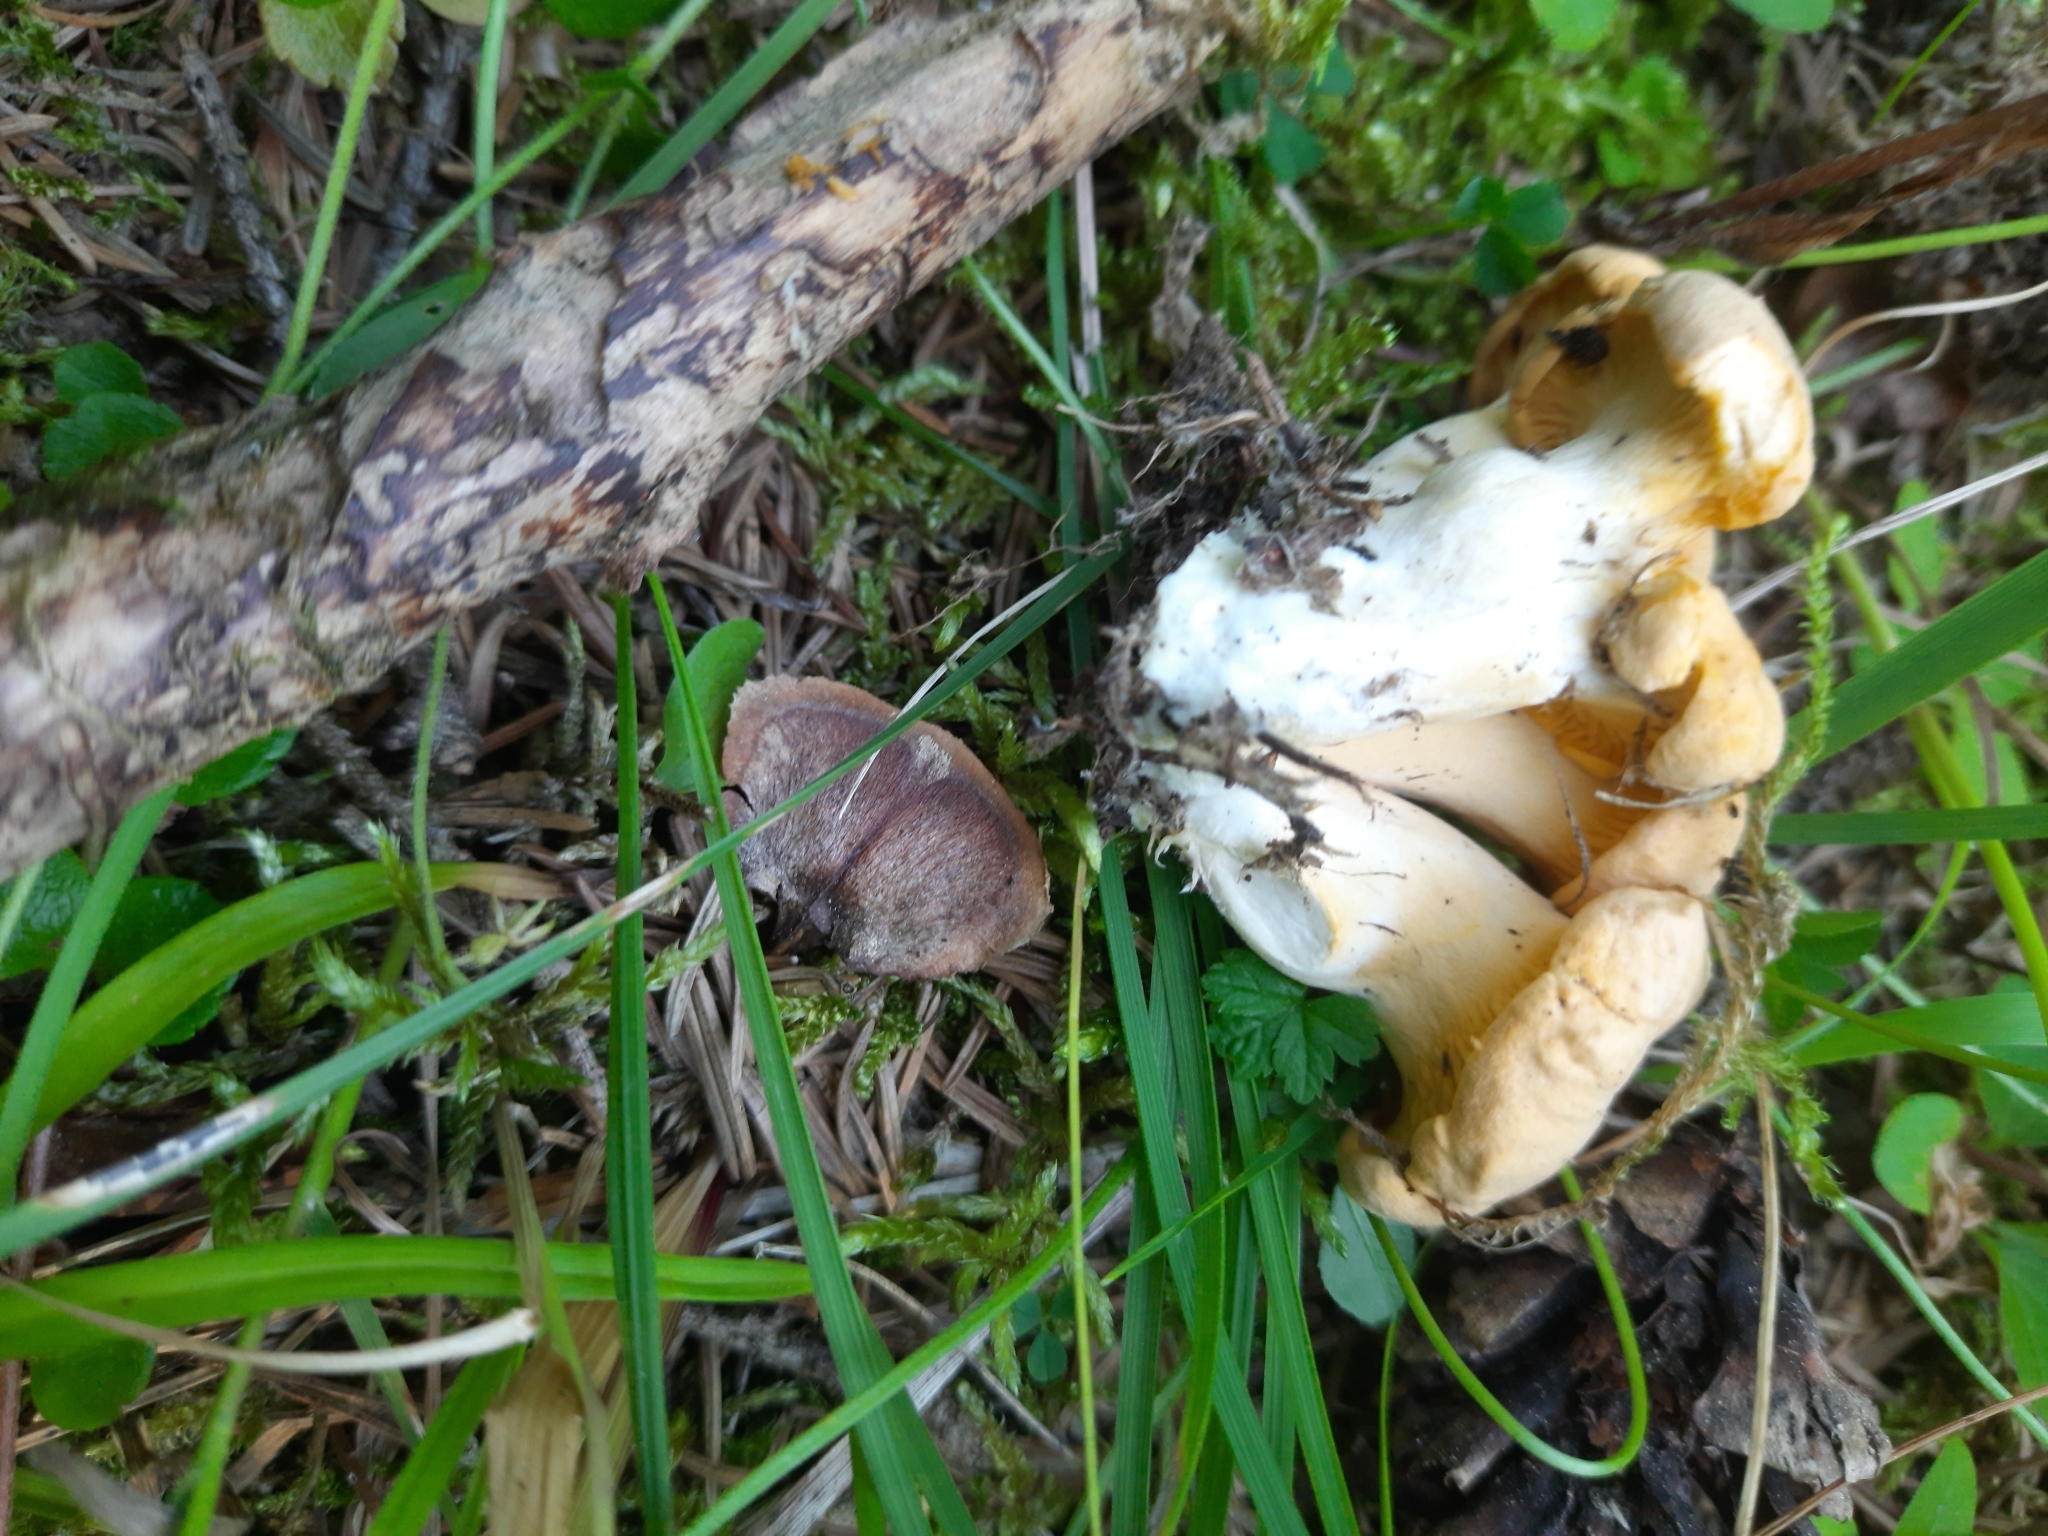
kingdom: Fungi
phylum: Basidiomycota
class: Agaricomycetes
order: Cantharellales
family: Hydnaceae
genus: Cantharellus
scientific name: Cantharellus cibarius
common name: Chanterelle
